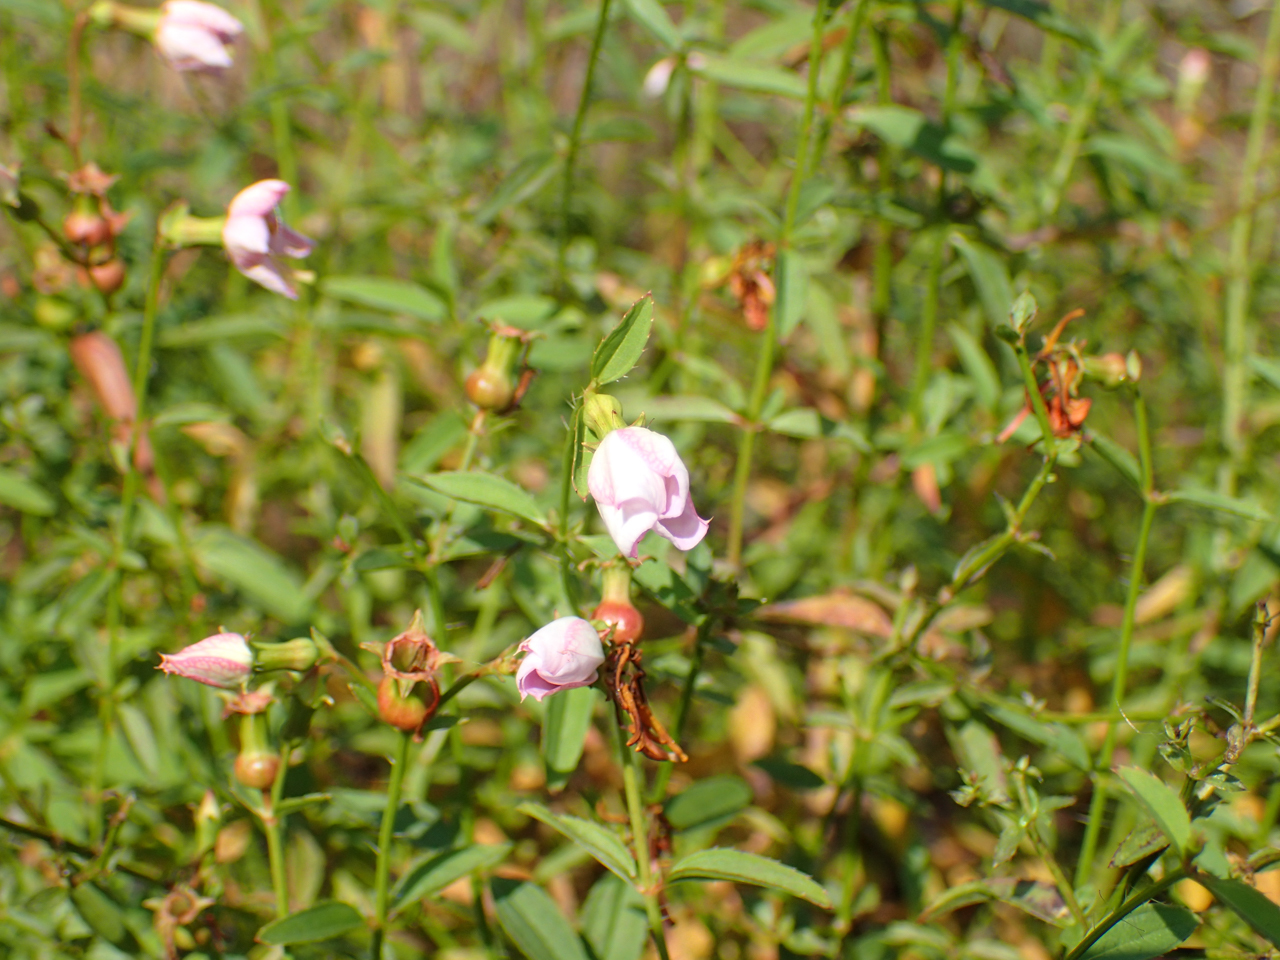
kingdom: Plantae
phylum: Tracheophyta
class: Magnoliopsida
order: Myrtales
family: Melastomataceae
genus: Rhexia
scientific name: Rhexia mariana
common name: Dull meadow-pitcher
